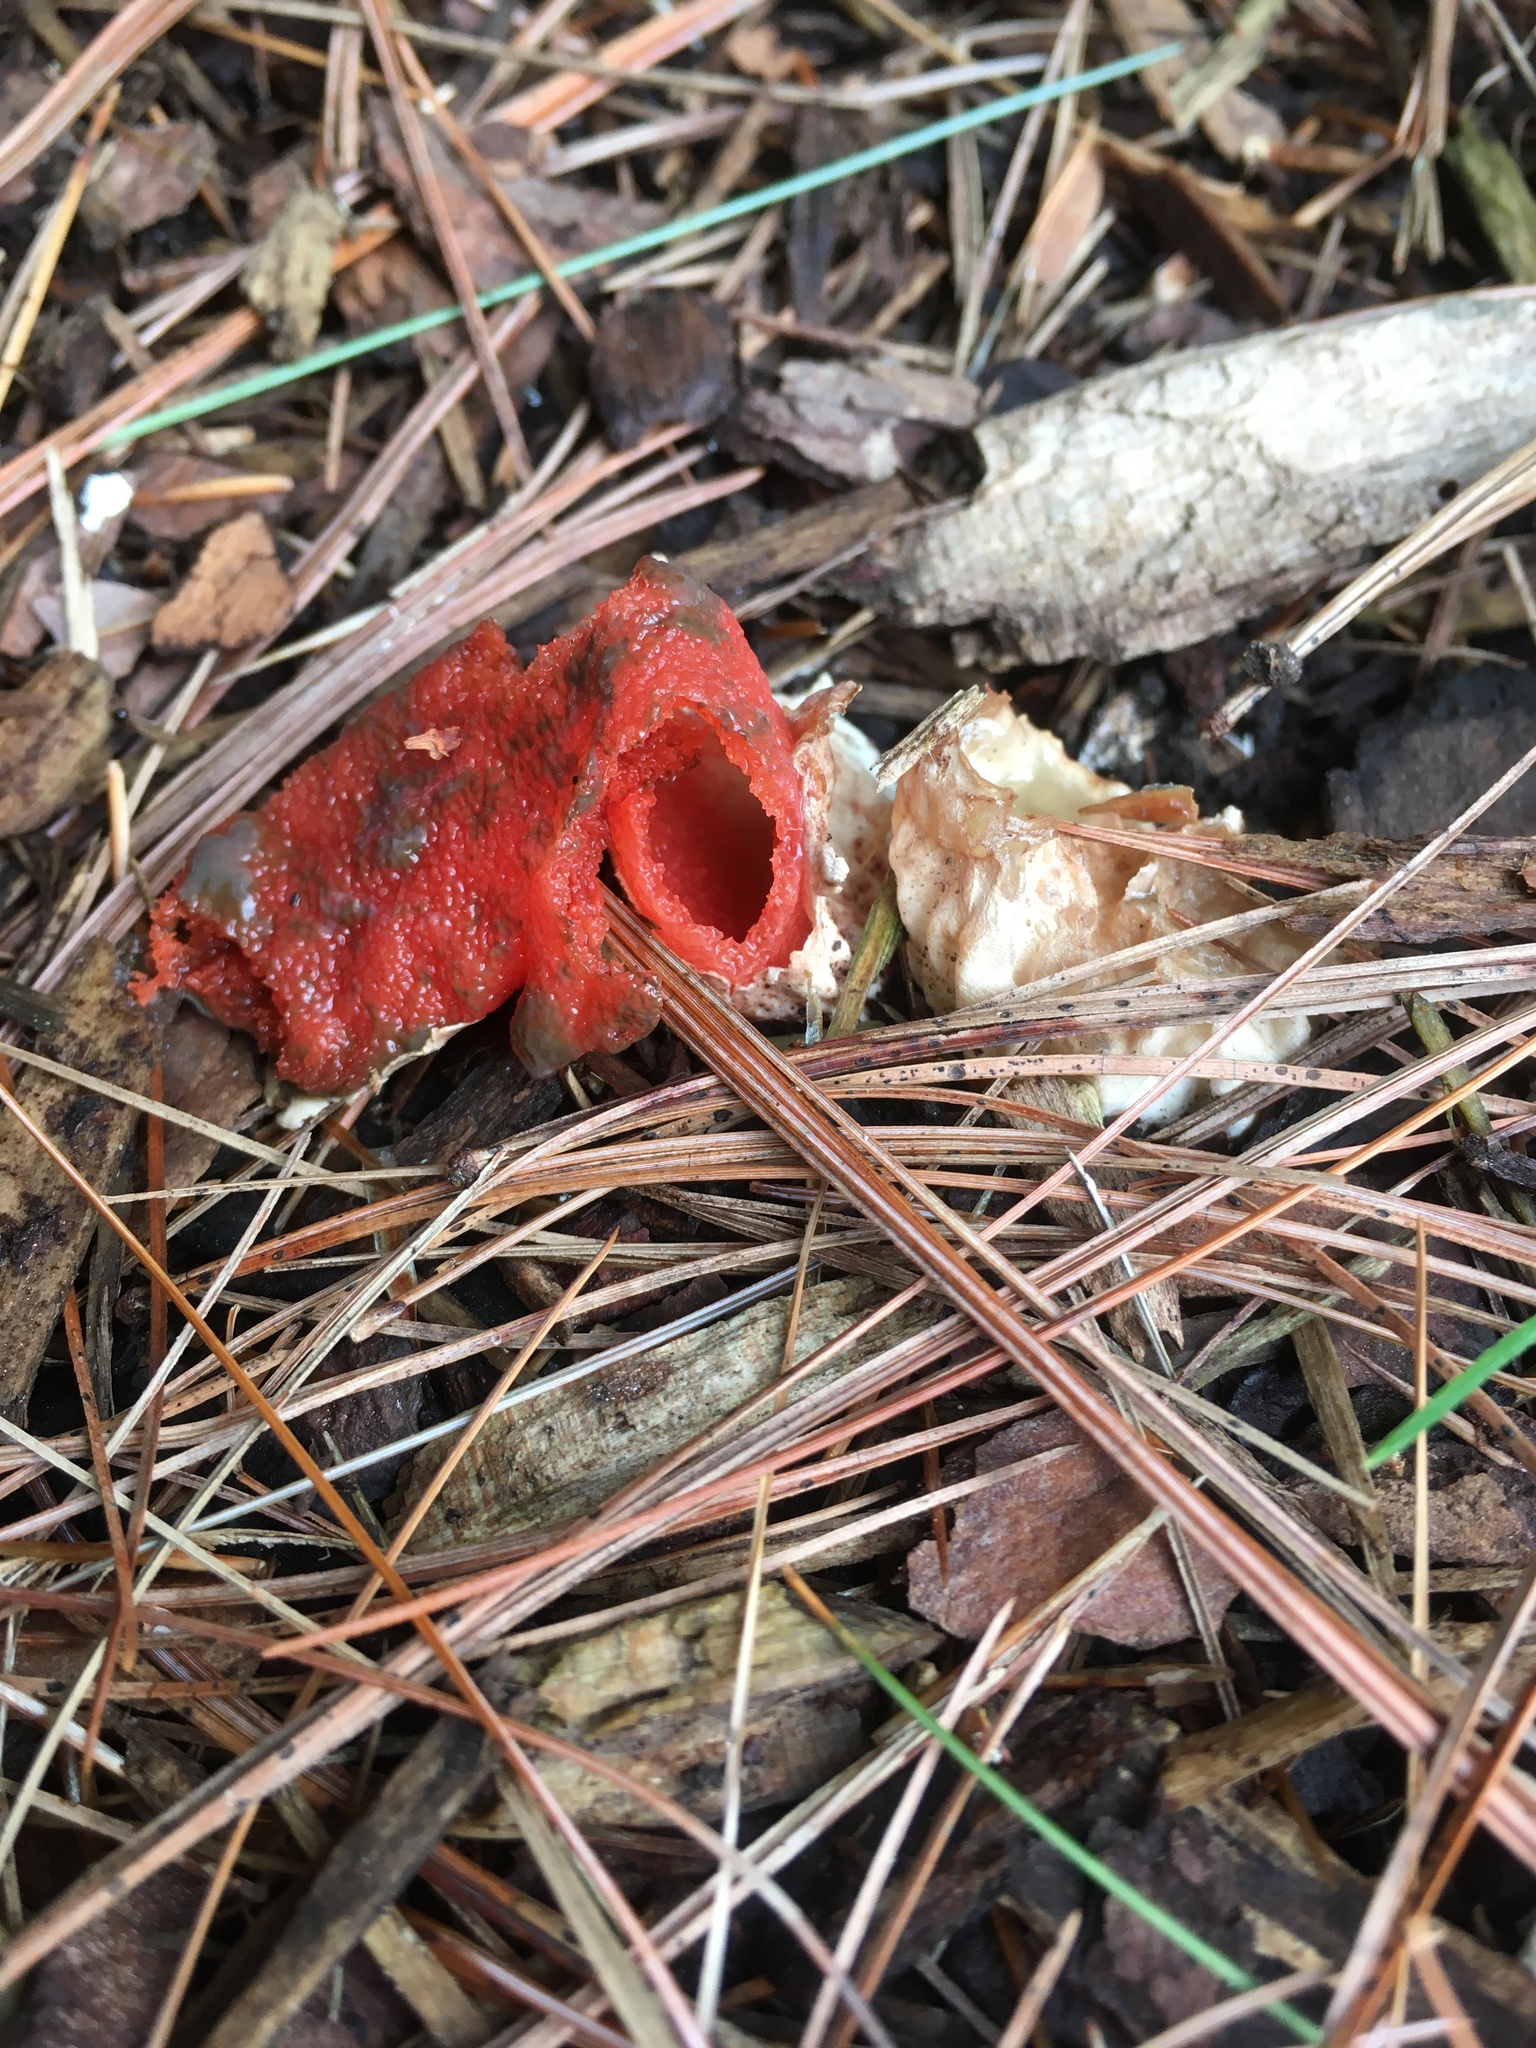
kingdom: Fungi
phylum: Basidiomycota
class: Agaricomycetes
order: Phallales
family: Phallaceae
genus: Mutinus
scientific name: Mutinus elegans
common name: Devil's dipstick
